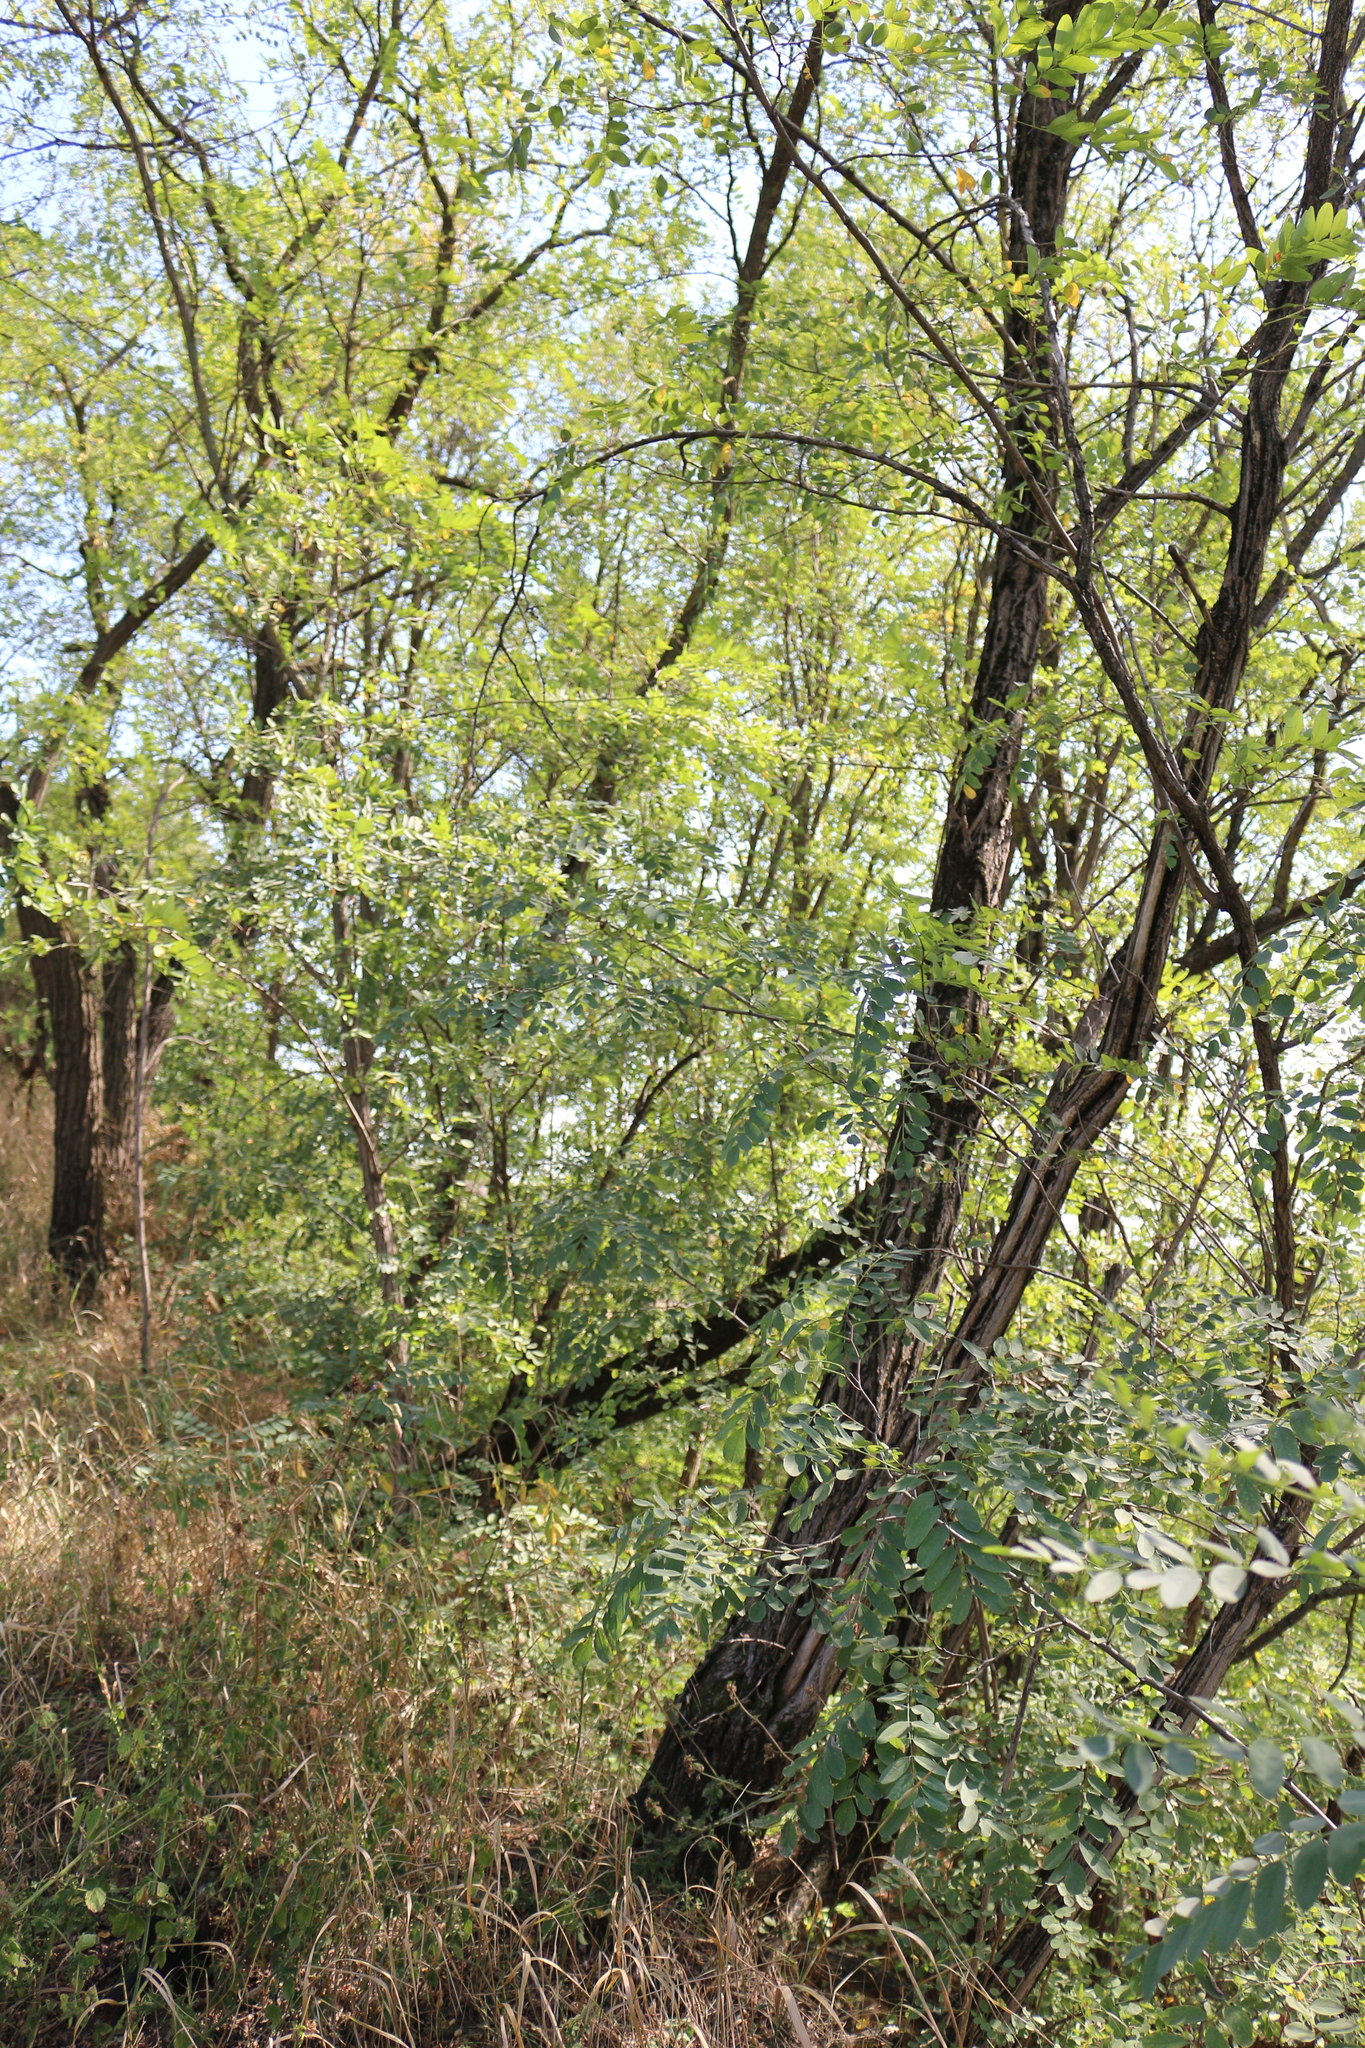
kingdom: Plantae
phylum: Tracheophyta
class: Magnoliopsida
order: Fabales
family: Fabaceae
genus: Robinia
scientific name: Robinia pseudoacacia
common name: Black locust
